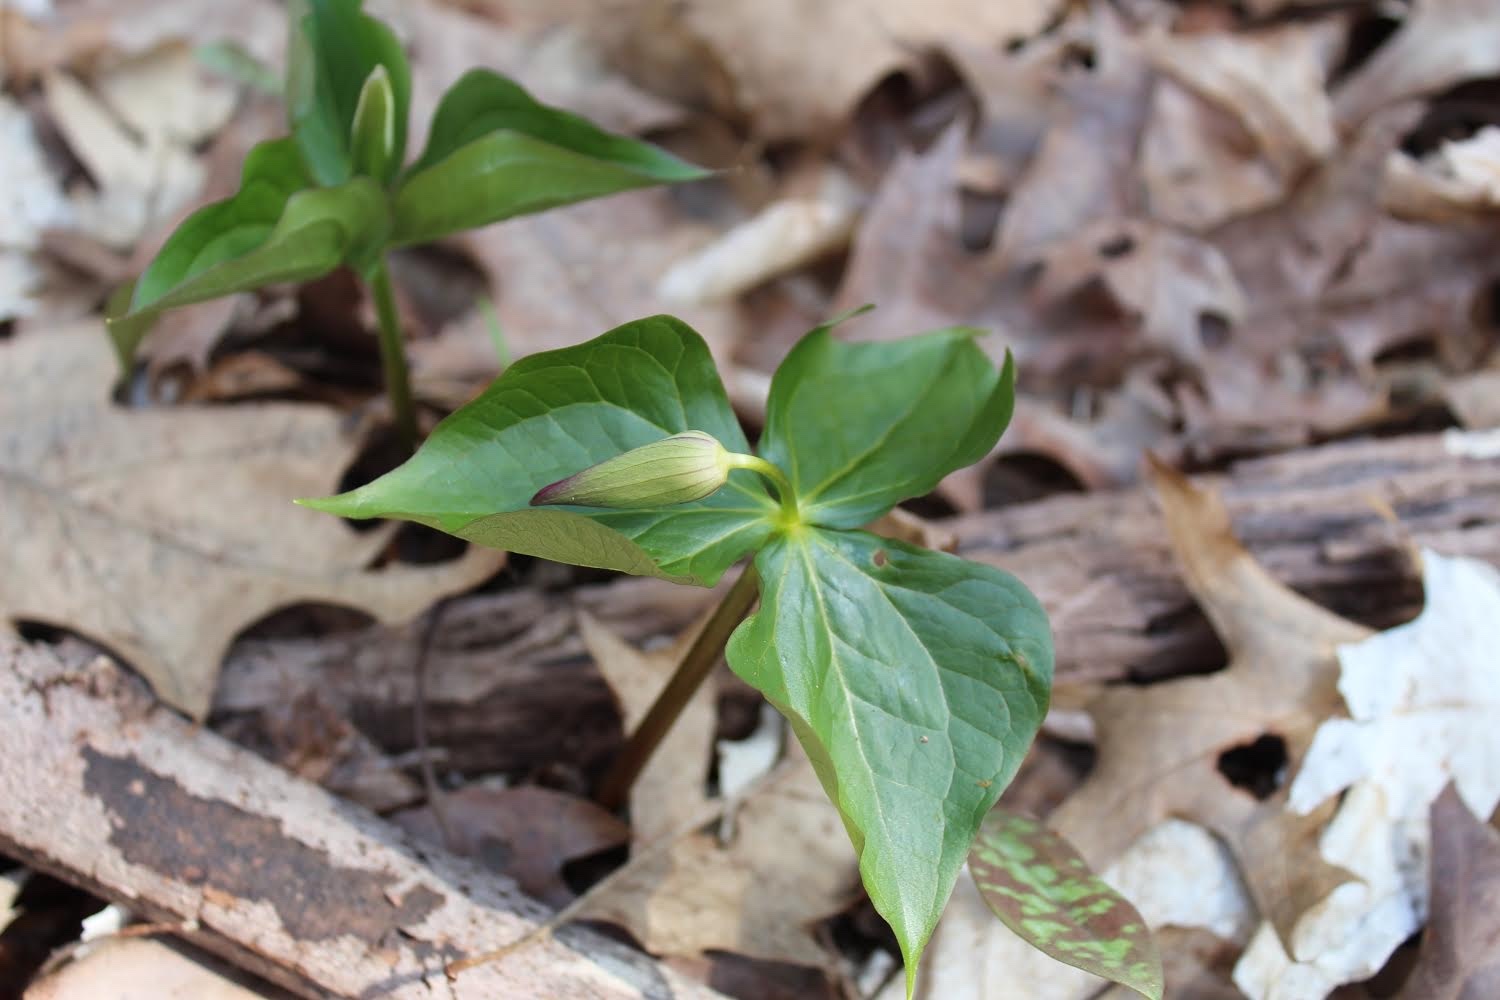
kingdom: Plantae
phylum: Tracheophyta
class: Liliopsida
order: Liliales
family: Melanthiaceae
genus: Trillium
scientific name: Trillium erectum
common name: Purple trillium
